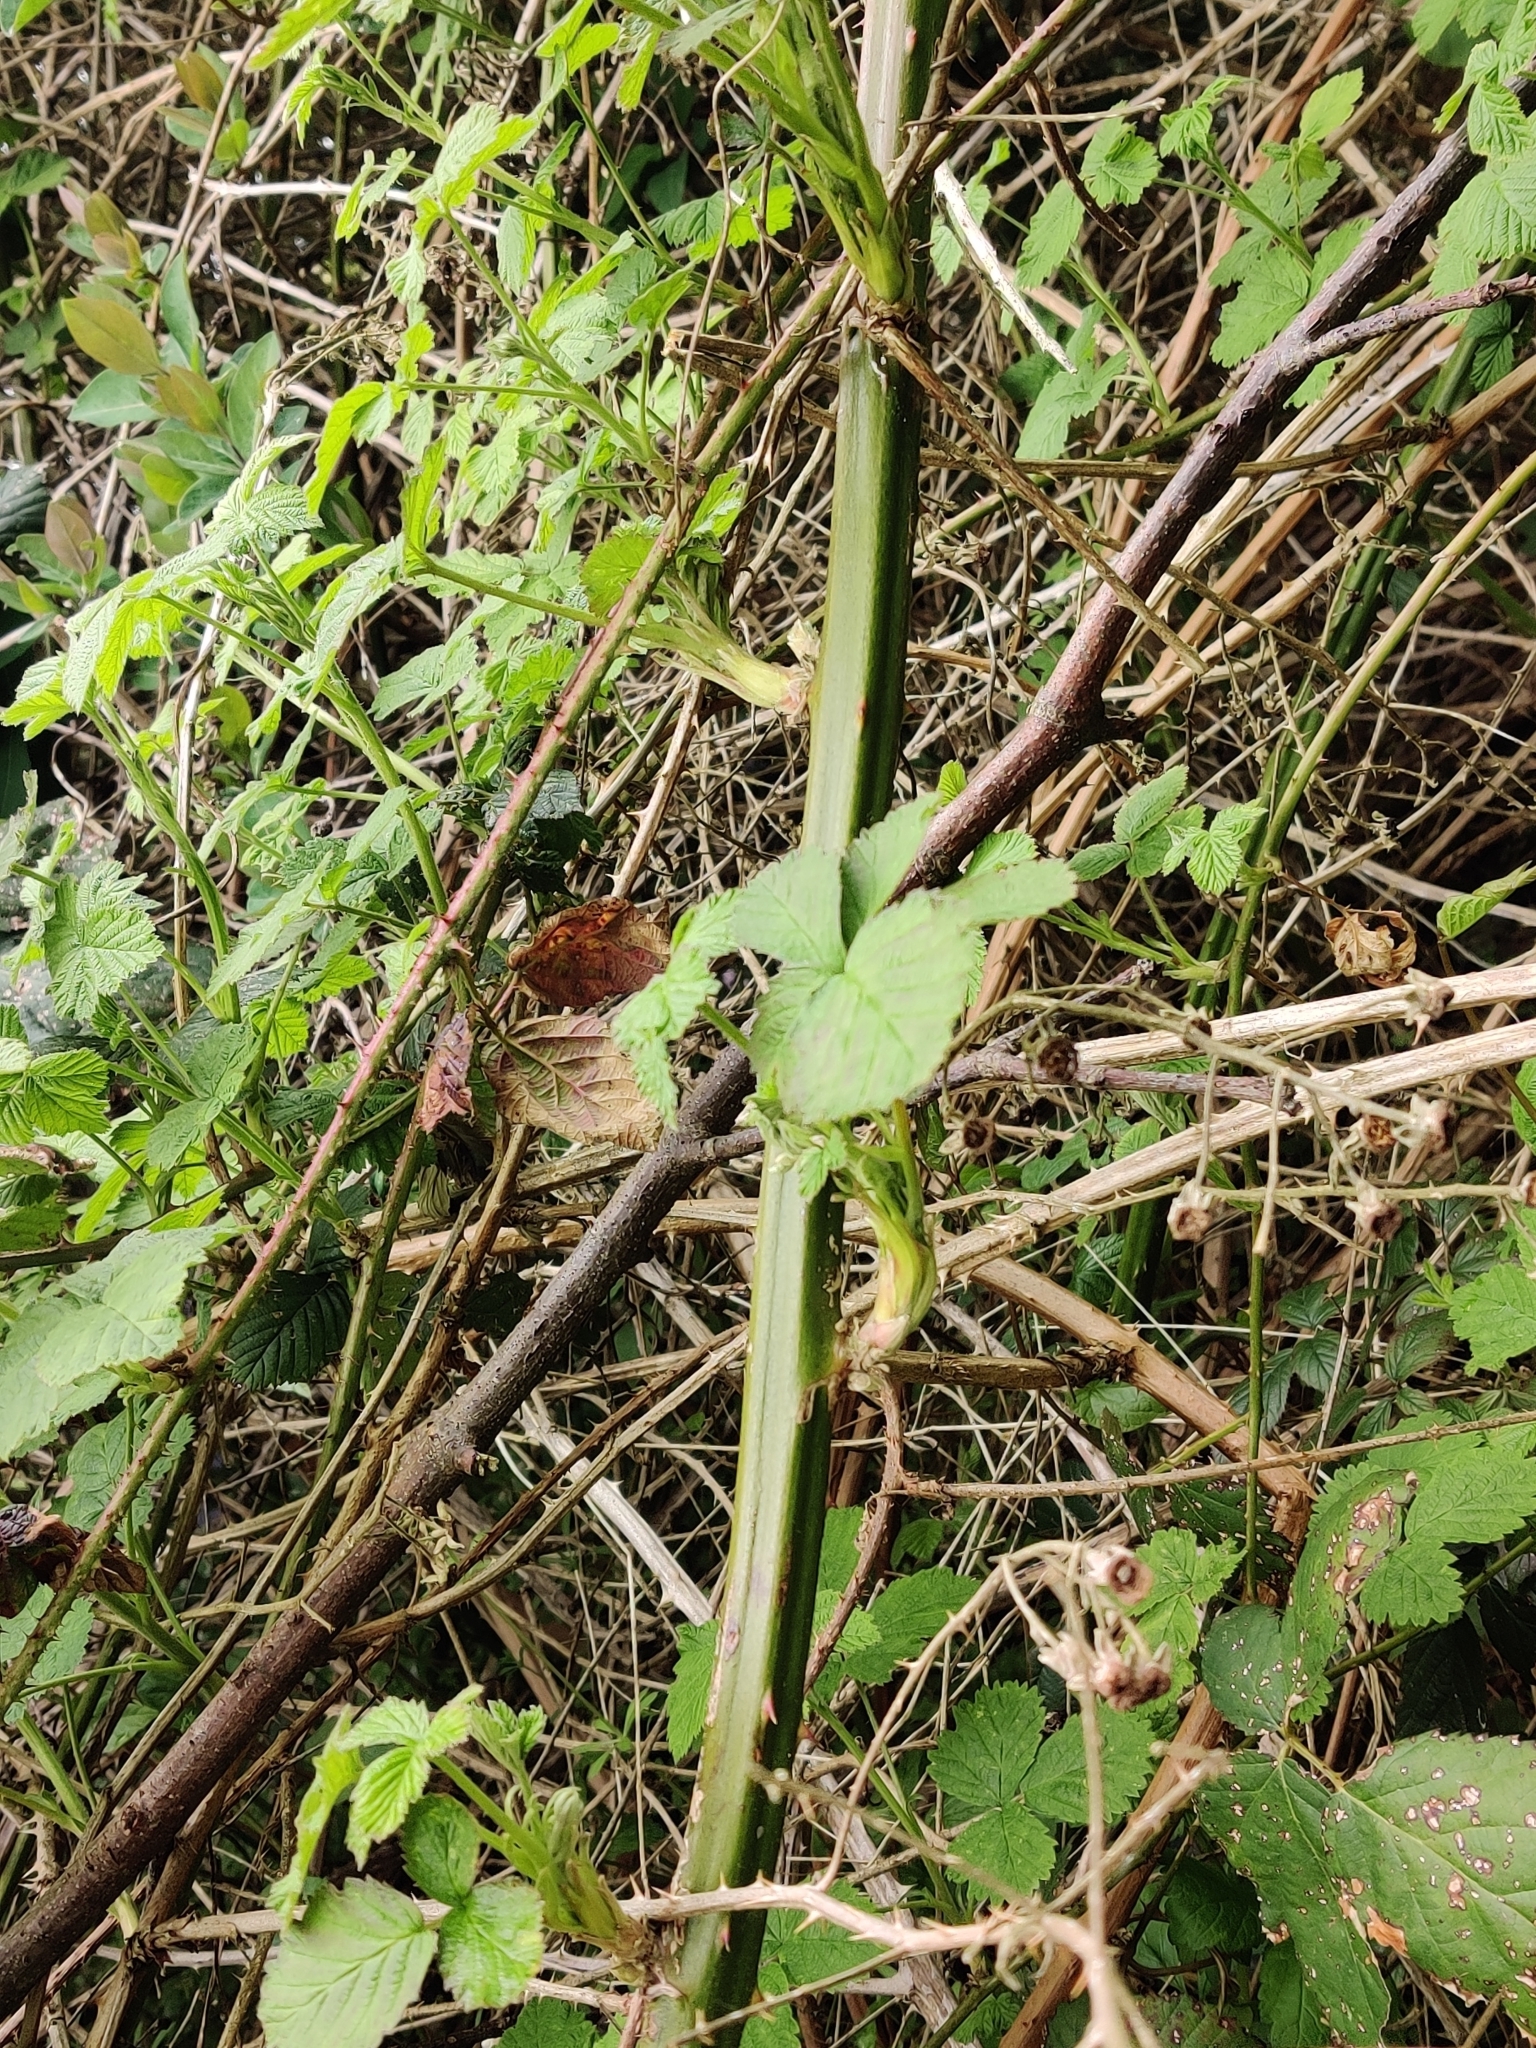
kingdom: Plantae
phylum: Tracheophyta
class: Magnoliopsida
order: Rosales
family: Rosaceae
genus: Rubus
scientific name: Rubus armeniacus
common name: Himalayan blackberry
